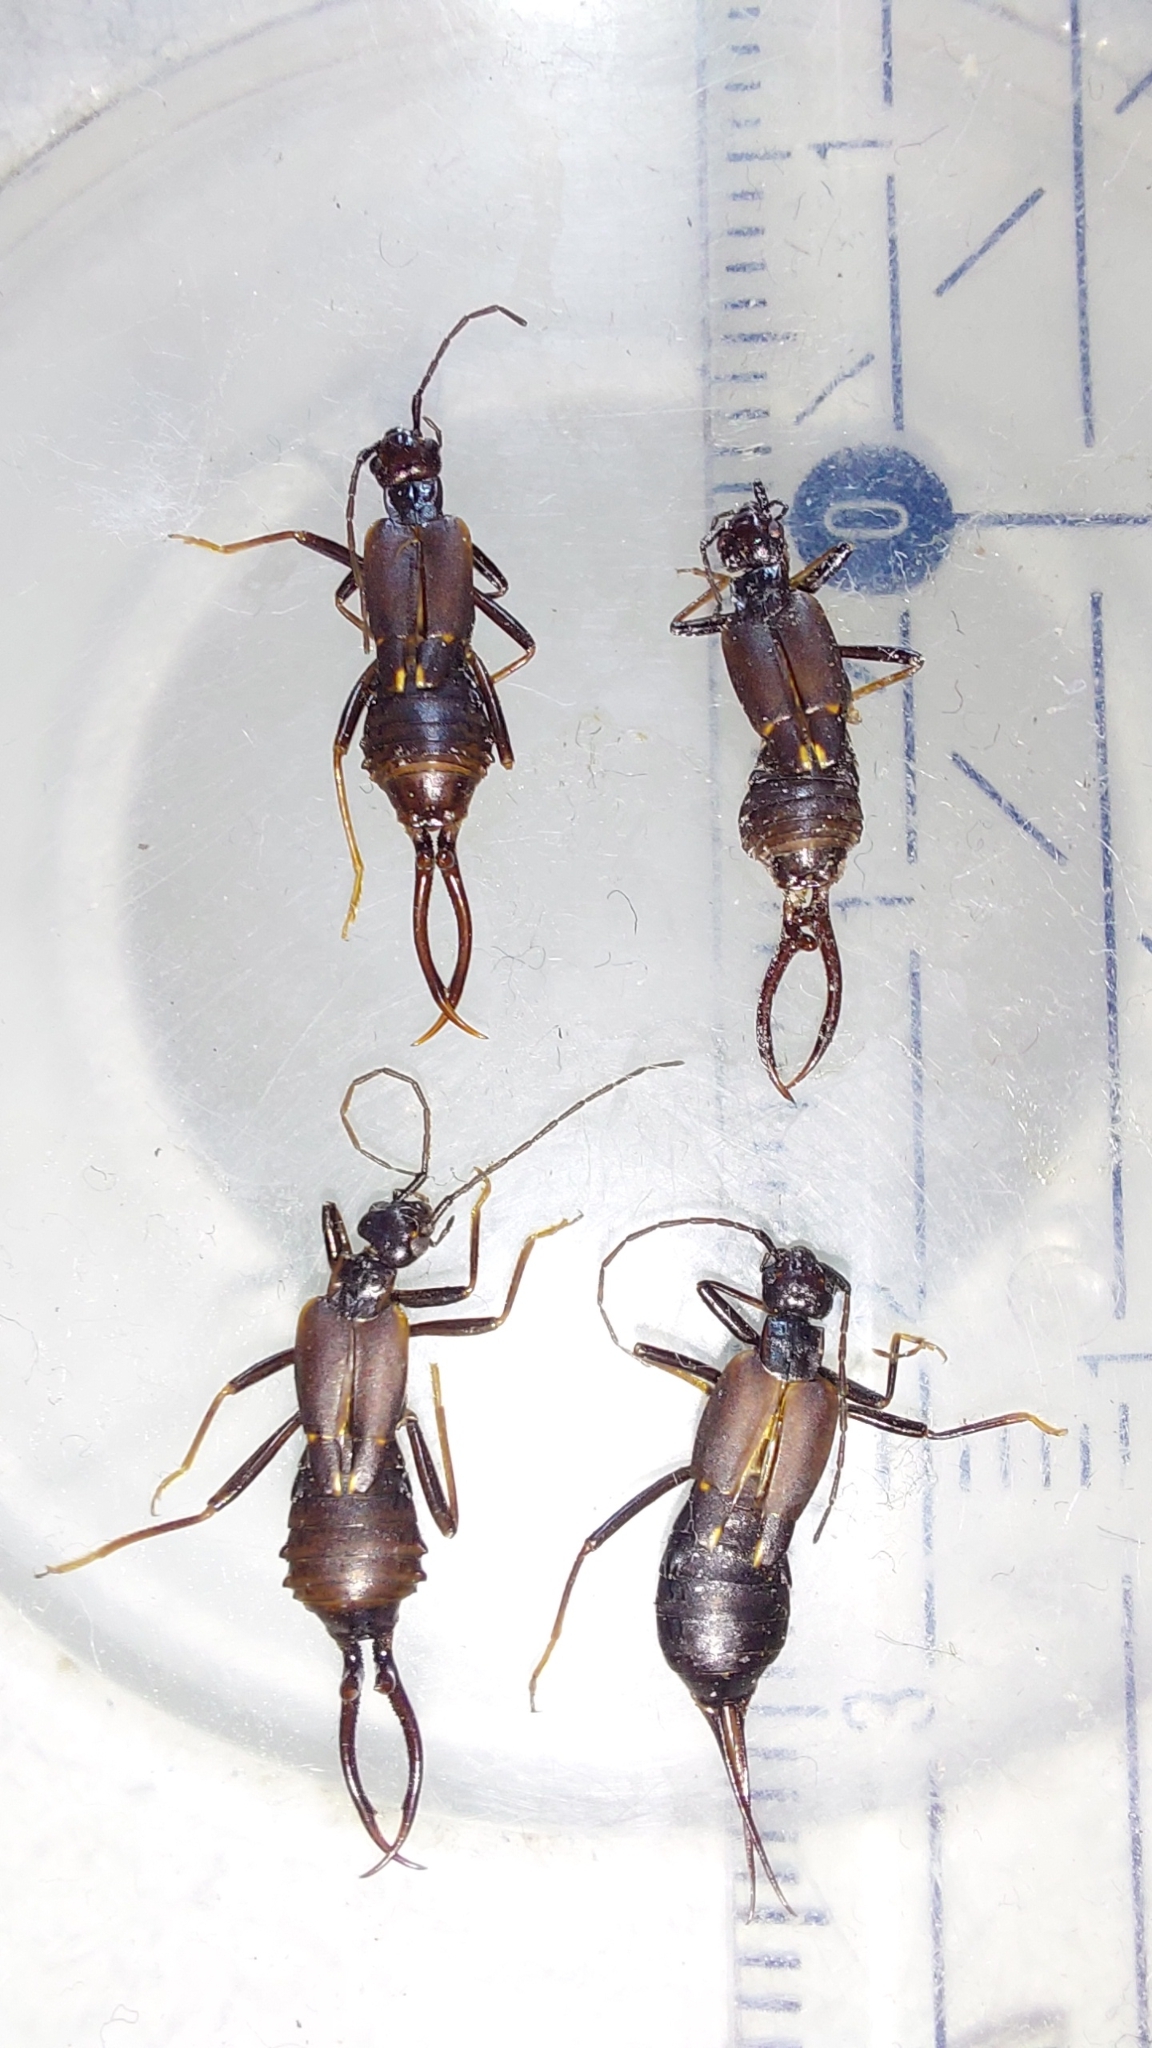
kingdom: Animalia
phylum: Arthropoda
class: Insecta
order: Dermaptera
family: Forficulidae
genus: Eparchus
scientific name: Eparchus insignis
